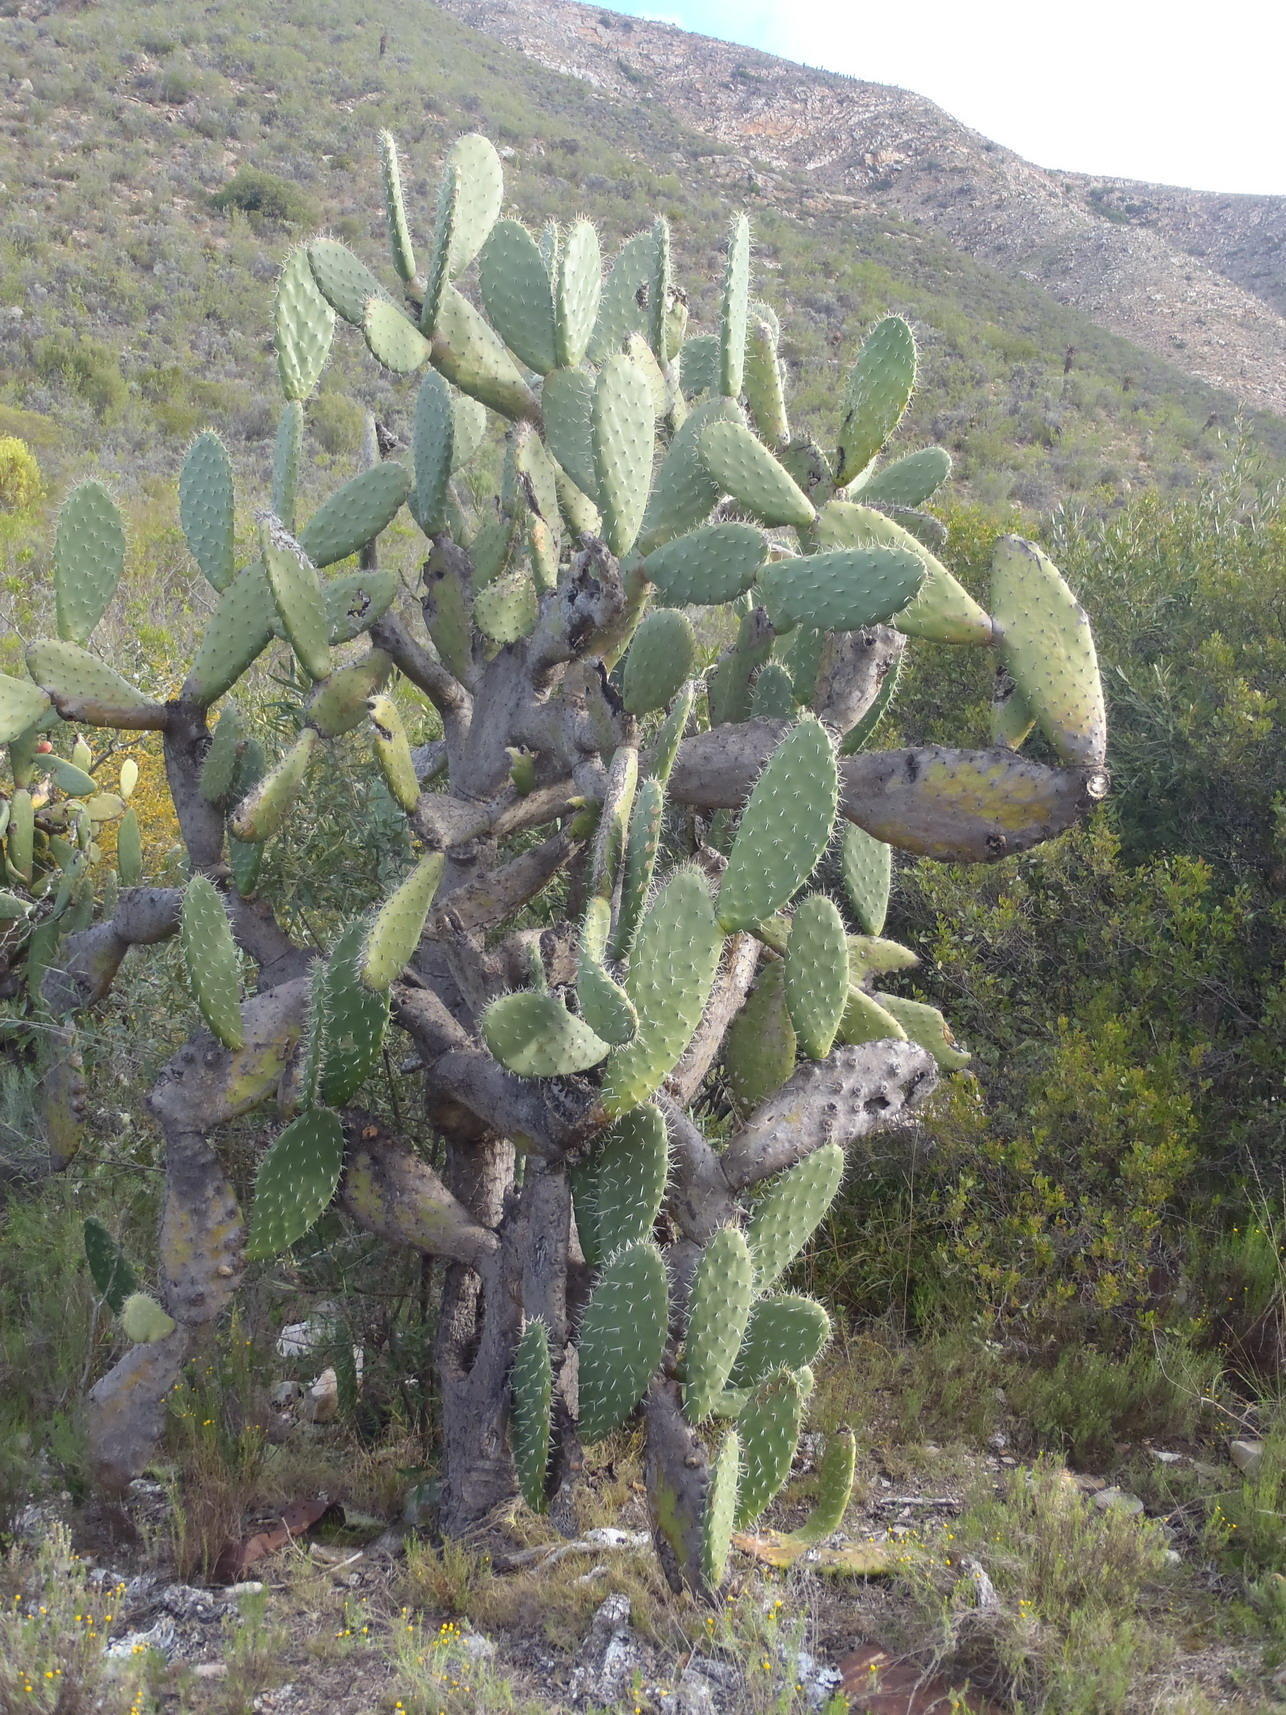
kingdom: Plantae
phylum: Tracheophyta
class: Magnoliopsida
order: Caryophyllales
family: Cactaceae
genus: Opuntia
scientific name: Opuntia ficus-indica
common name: Barbary fig
